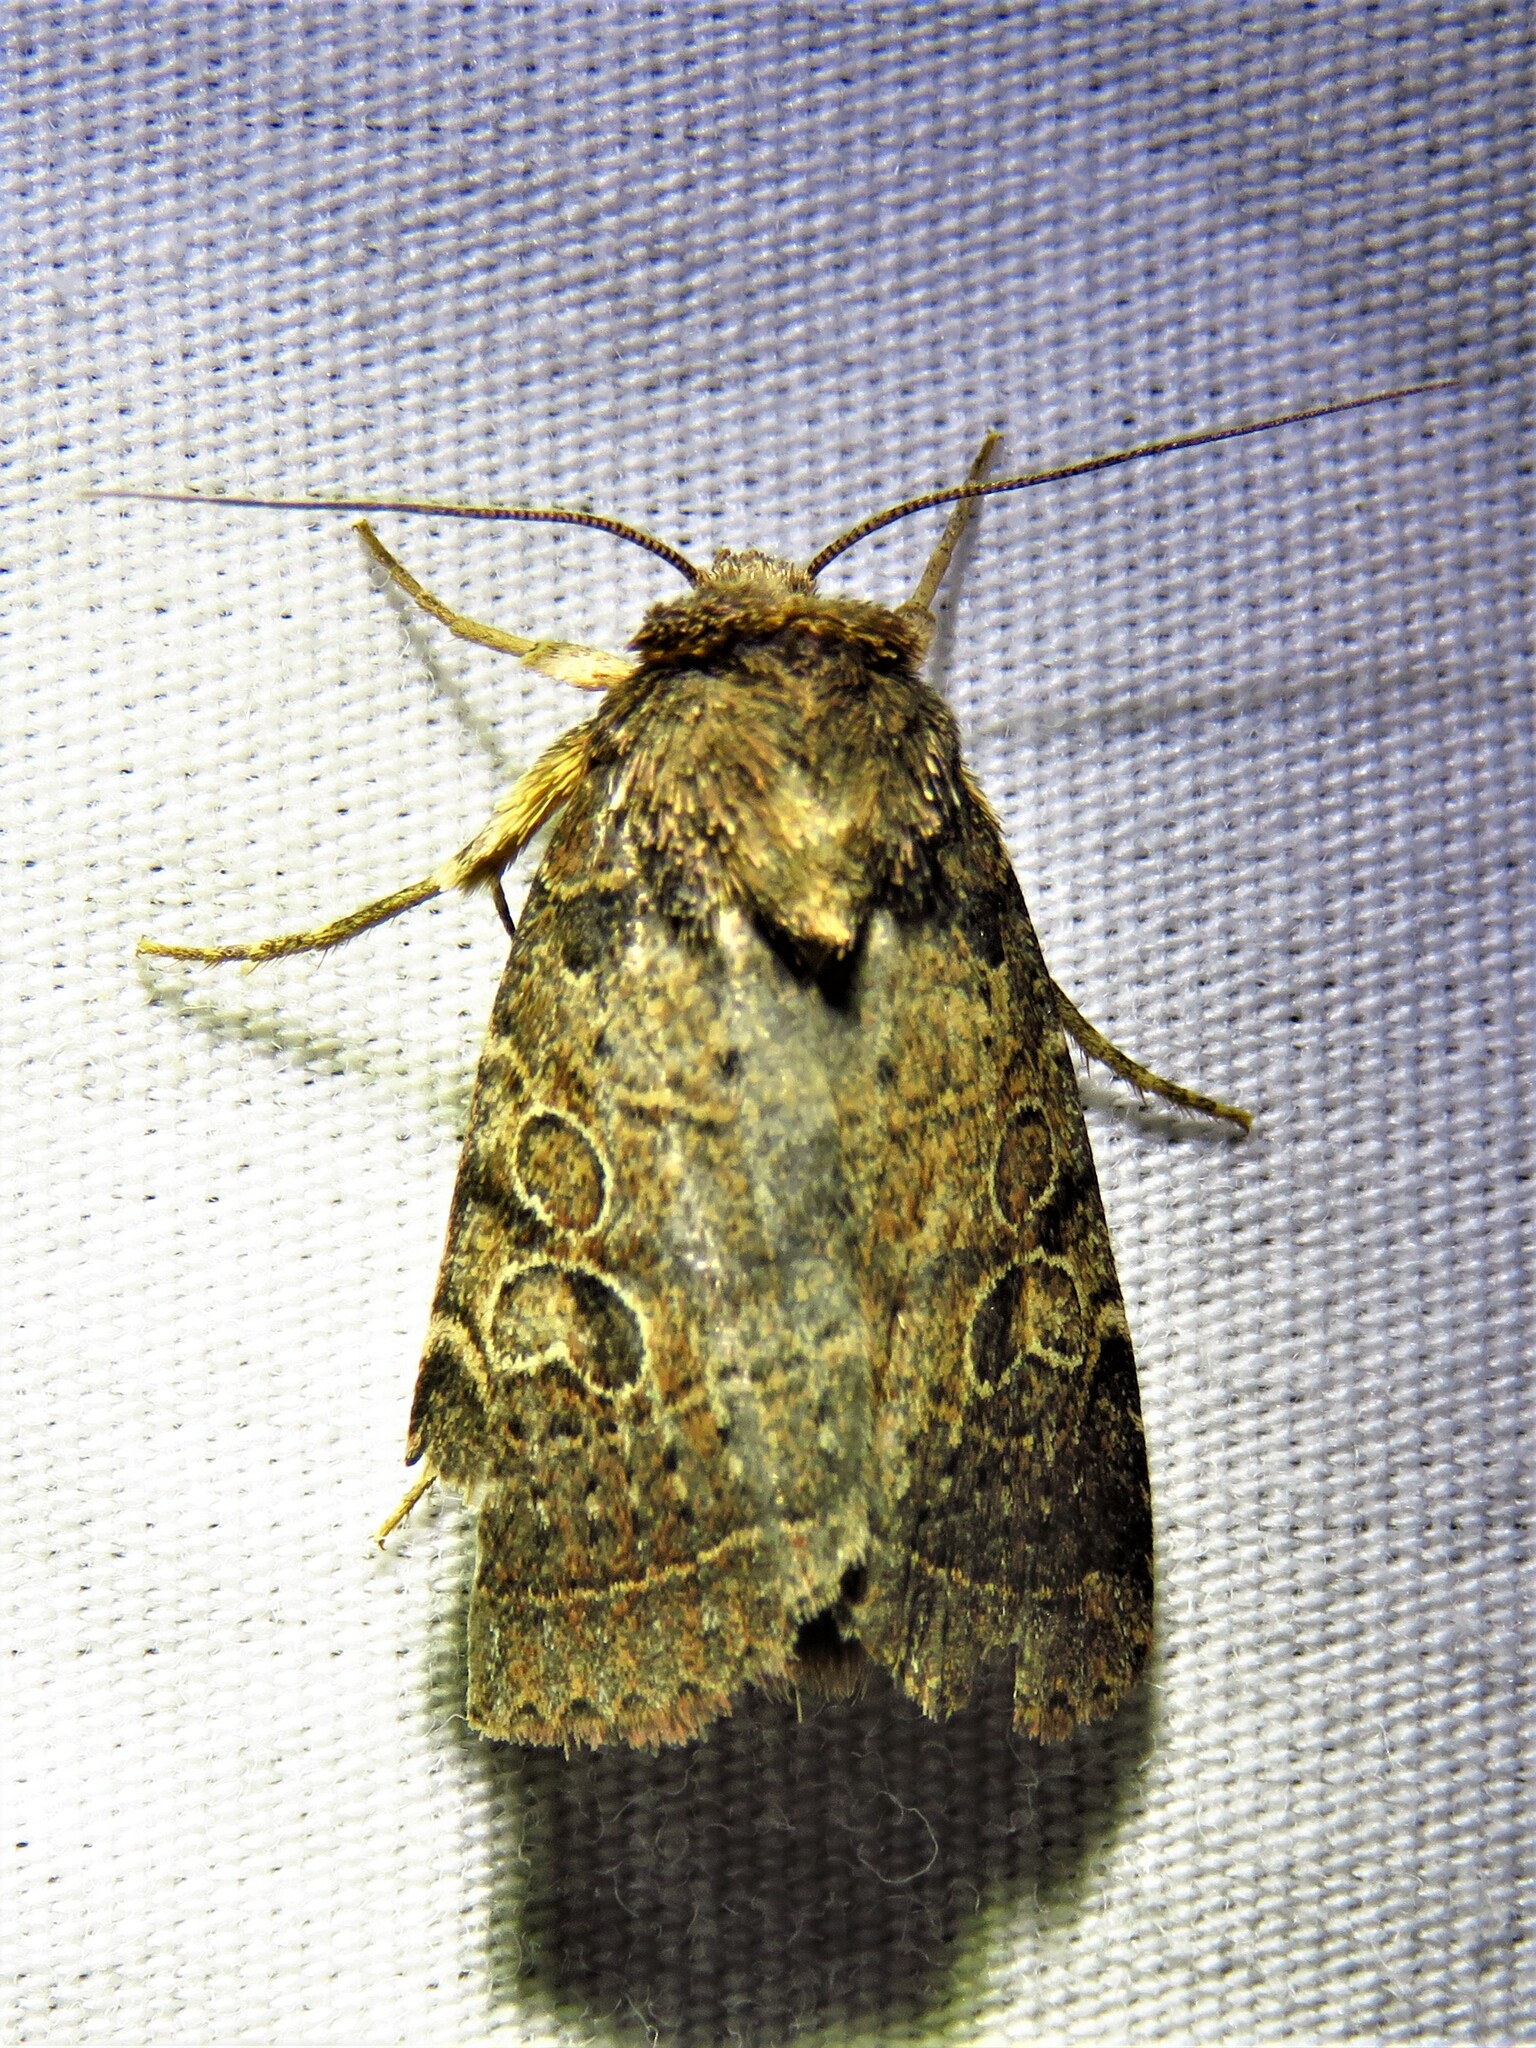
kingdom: Animalia
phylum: Arthropoda
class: Insecta
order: Lepidoptera
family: Noctuidae
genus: Orthodes
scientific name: Orthodes furtiva
